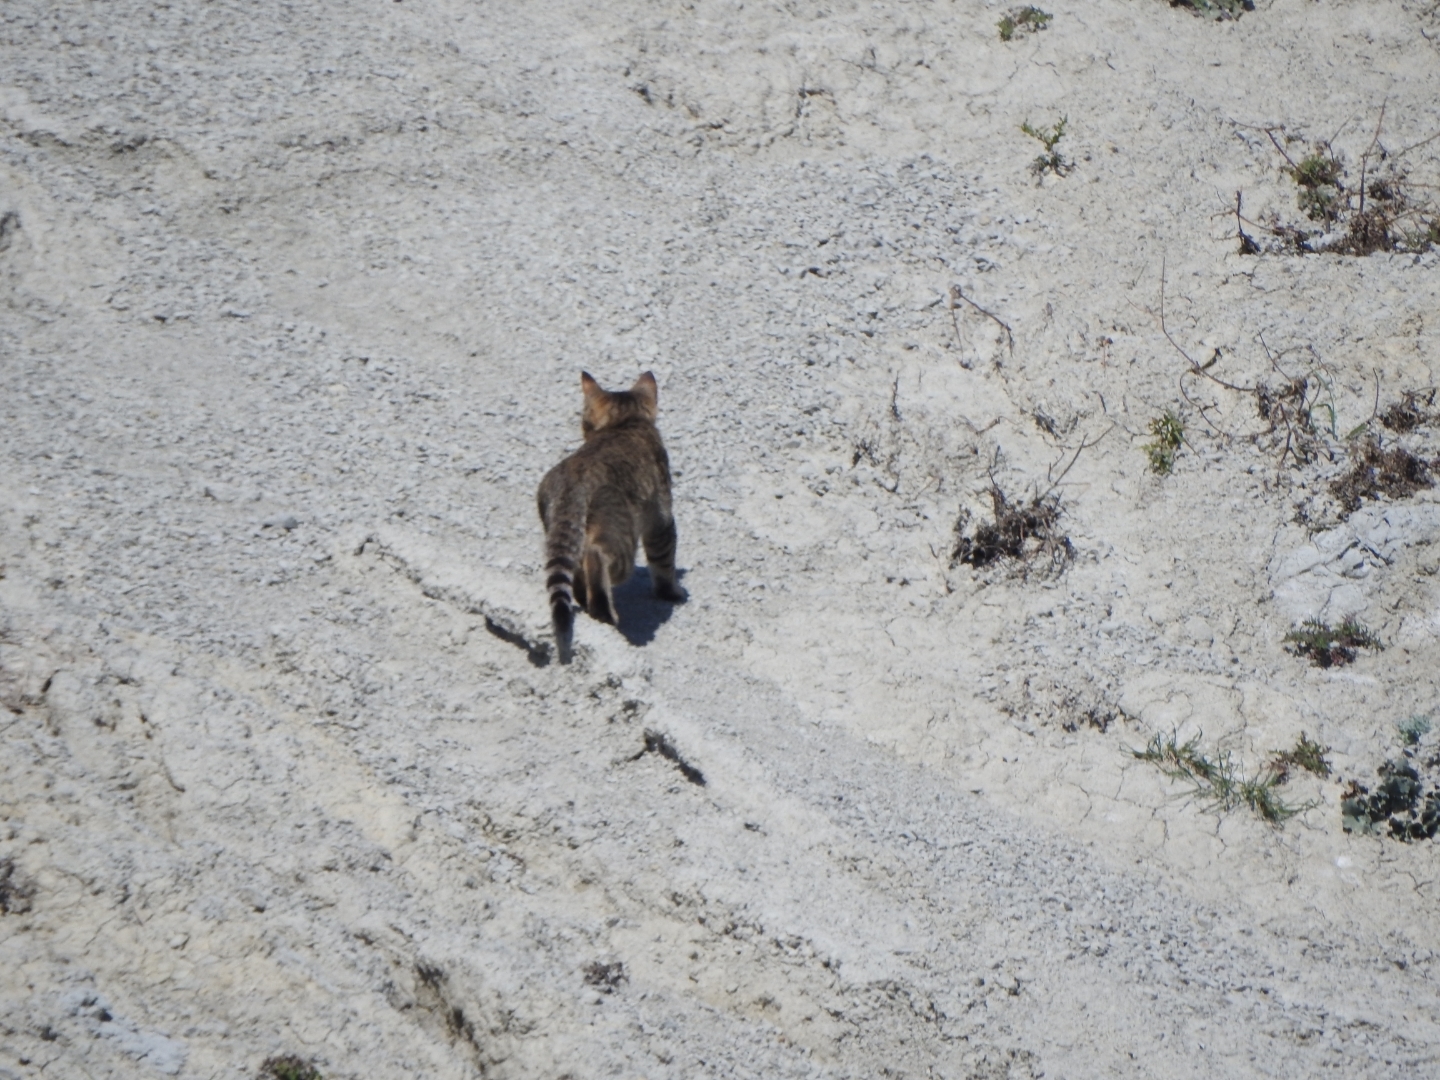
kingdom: Animalia
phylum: Chordata
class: Mammalia
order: Carnivora
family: Felidae
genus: Felis
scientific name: Felis catus
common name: Domestic cat
